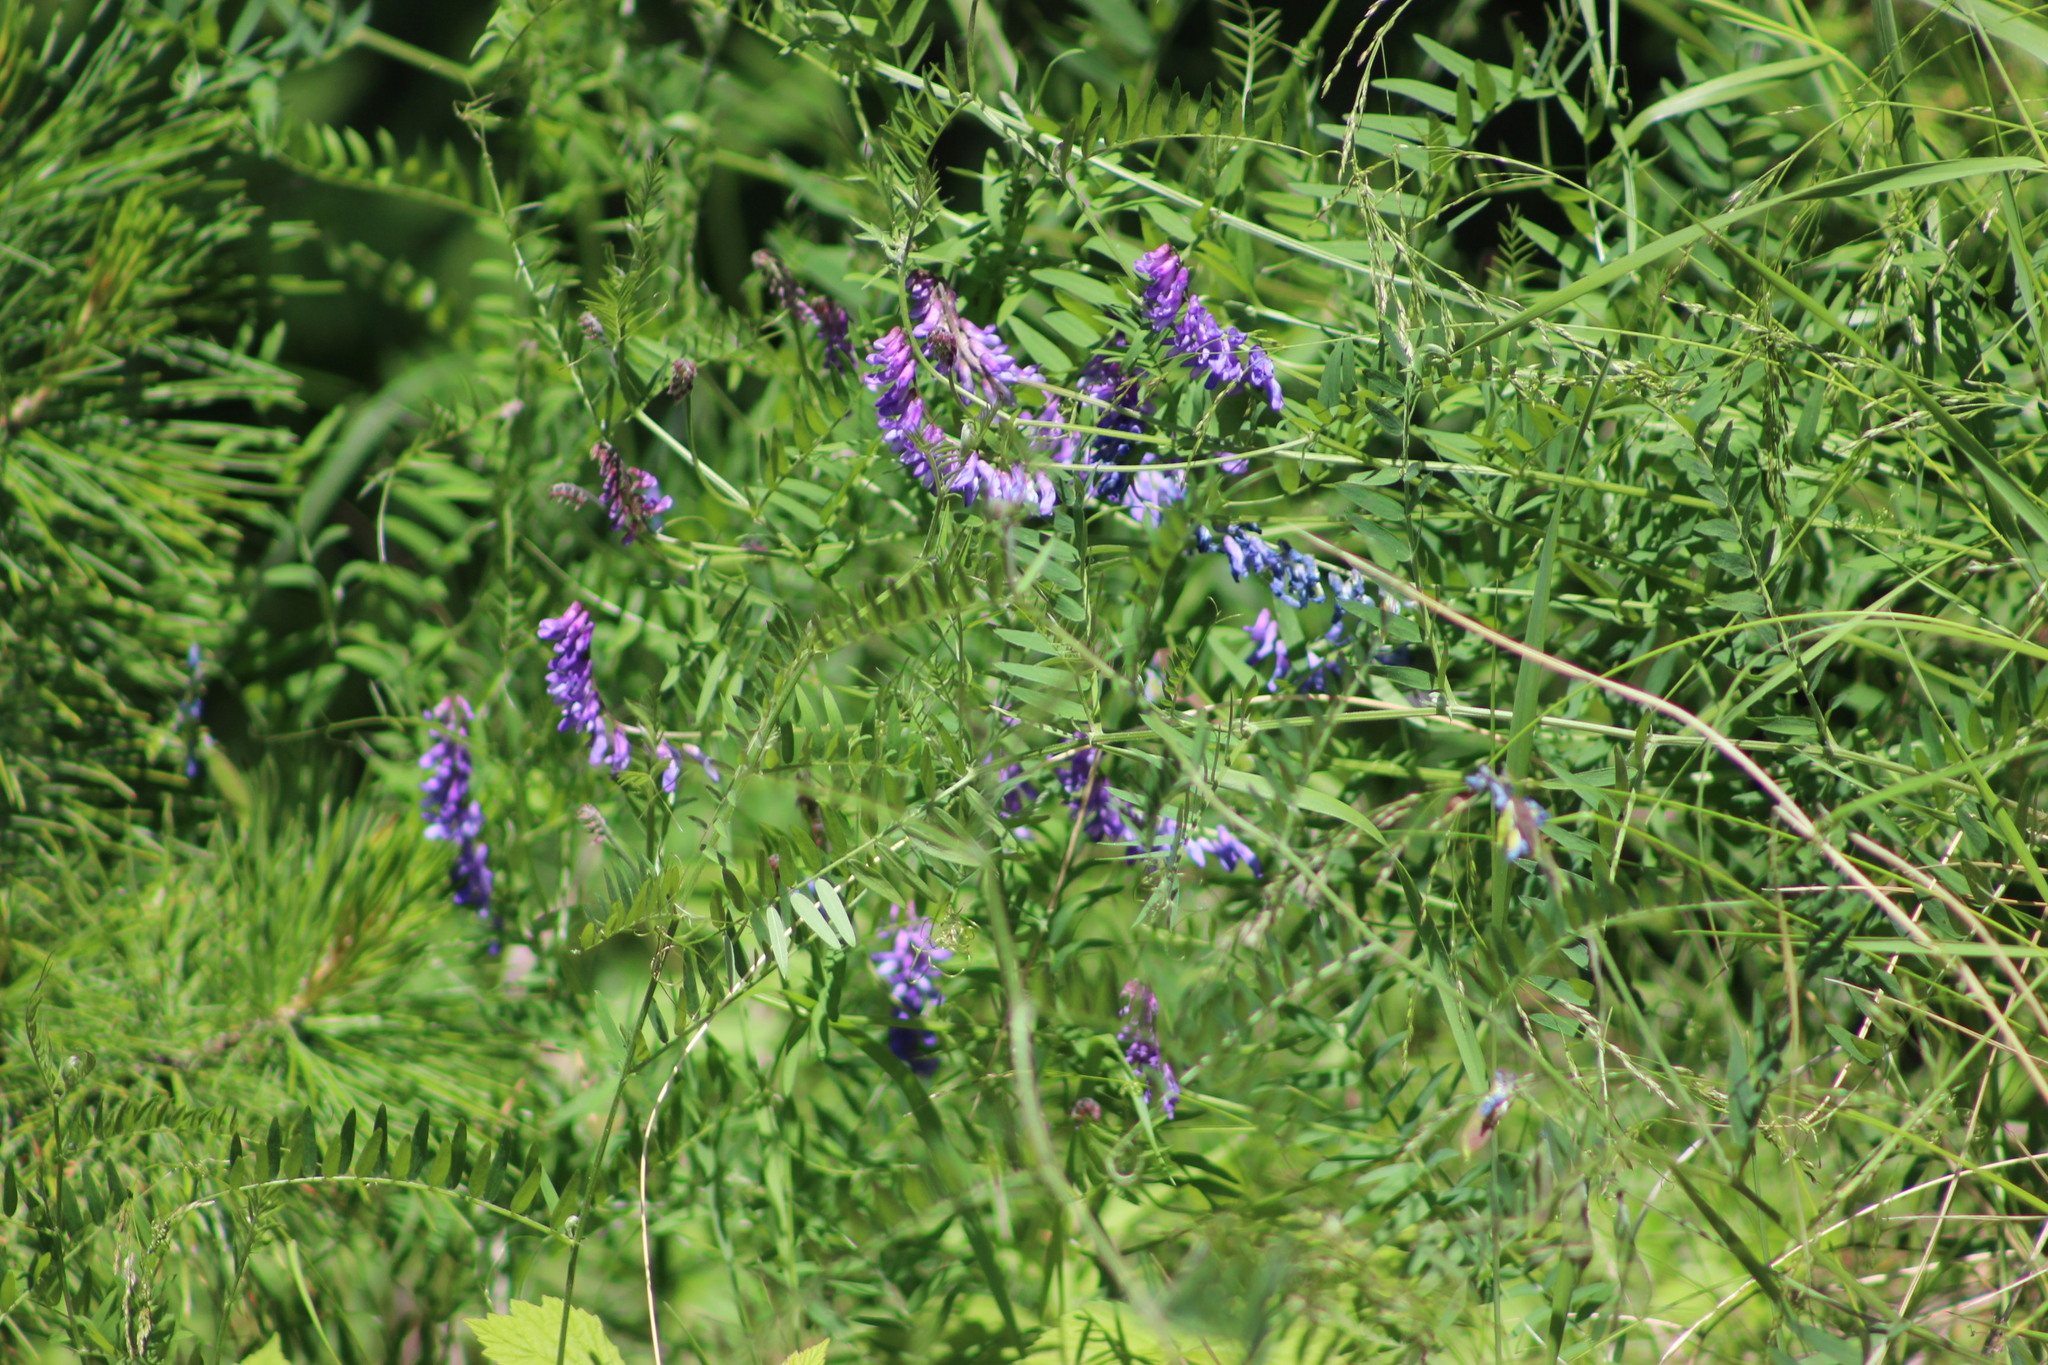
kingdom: Plantae
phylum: Tracheophyta
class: Magnoliopsida
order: Fabales
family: Fabaceae
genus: Vicia
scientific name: Vicia cracca
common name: Bird vetch
